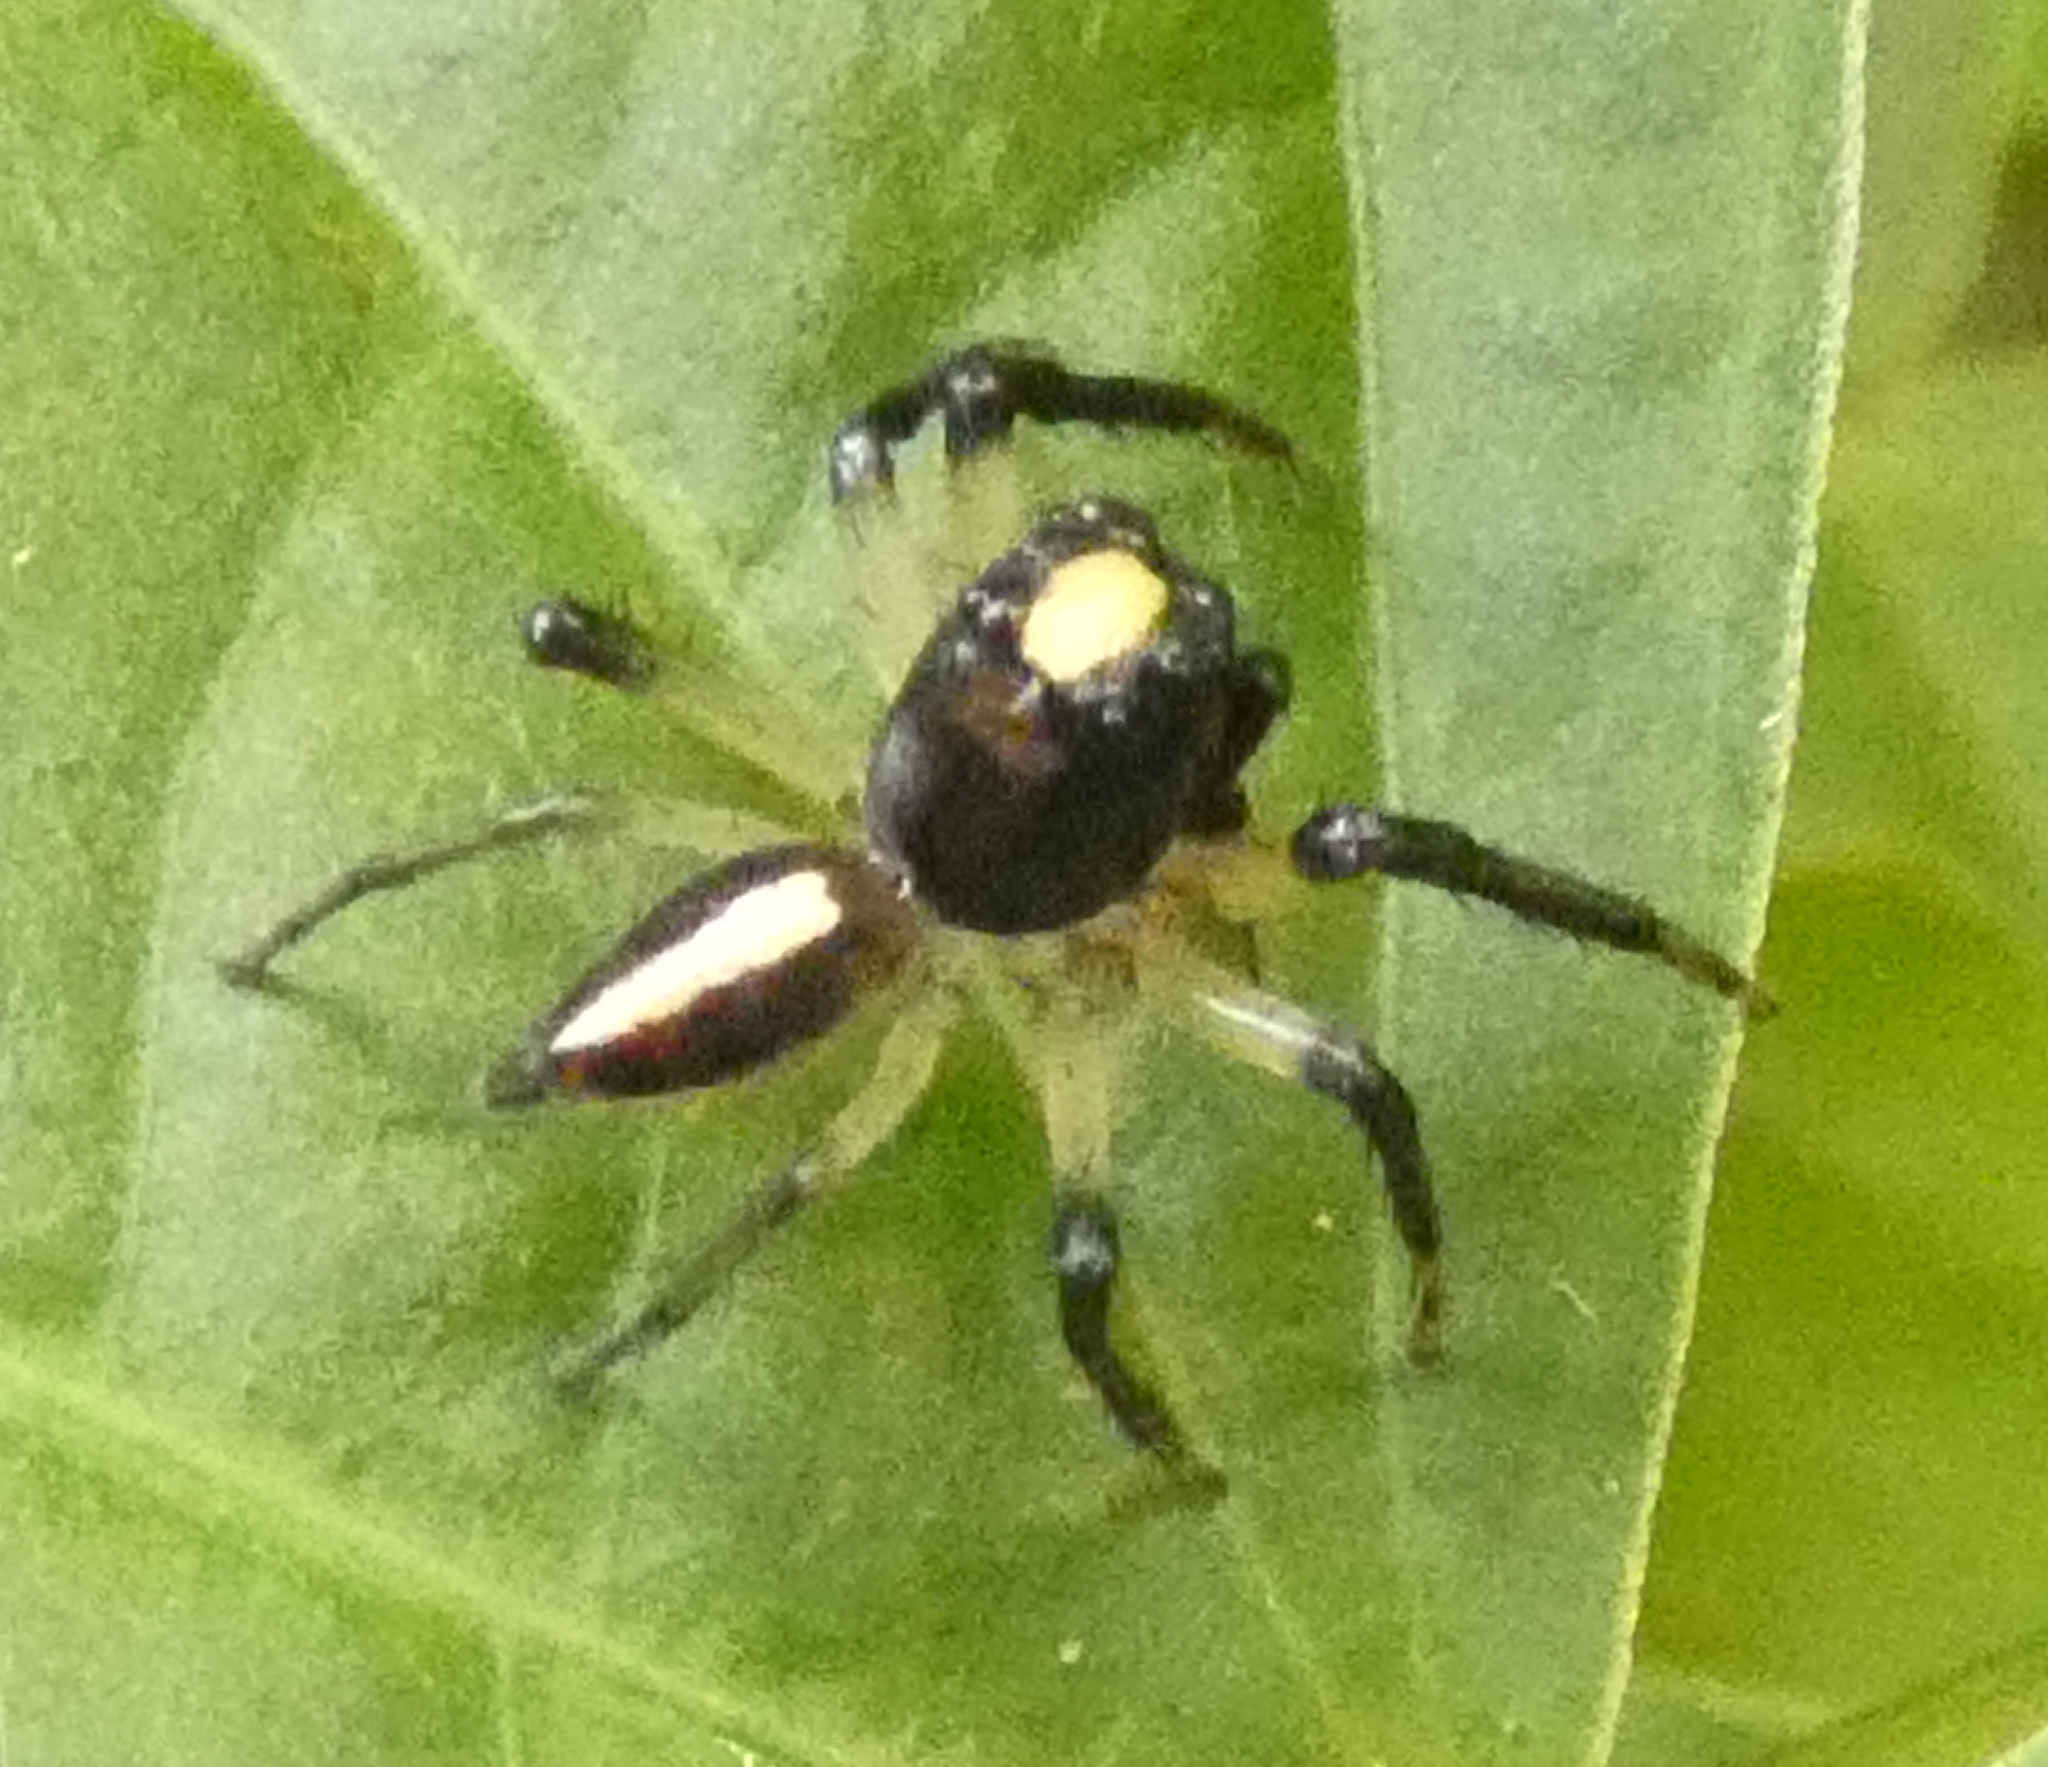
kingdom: Animalia
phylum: Arthropoda
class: Arachnida
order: Araneae
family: Salticidae
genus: Amycus
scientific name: Amycus flavicomis
